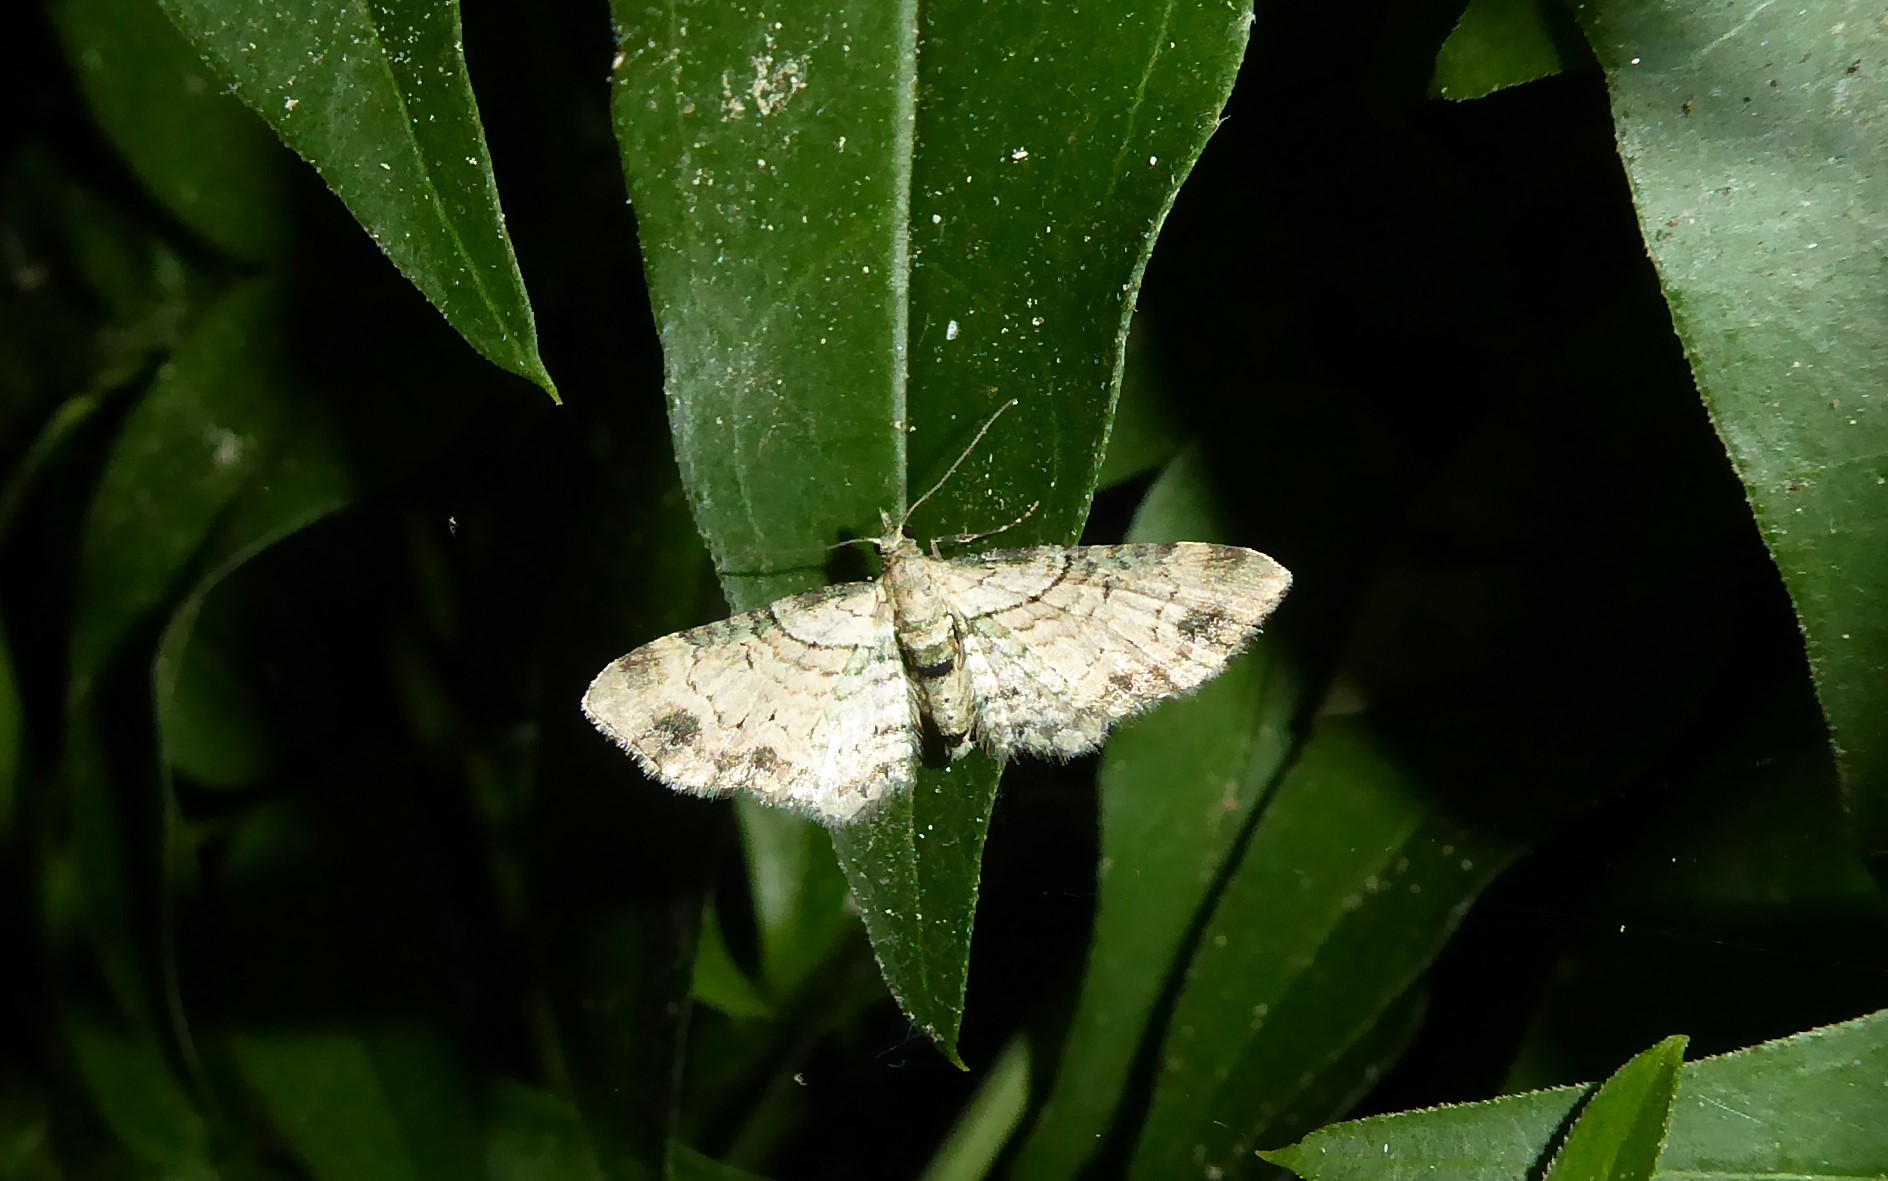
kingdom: Animalia
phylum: Arthropoda
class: Insecta
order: Lepidoptera
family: Geometridae
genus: Chloroclystis
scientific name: Chloroclystis
